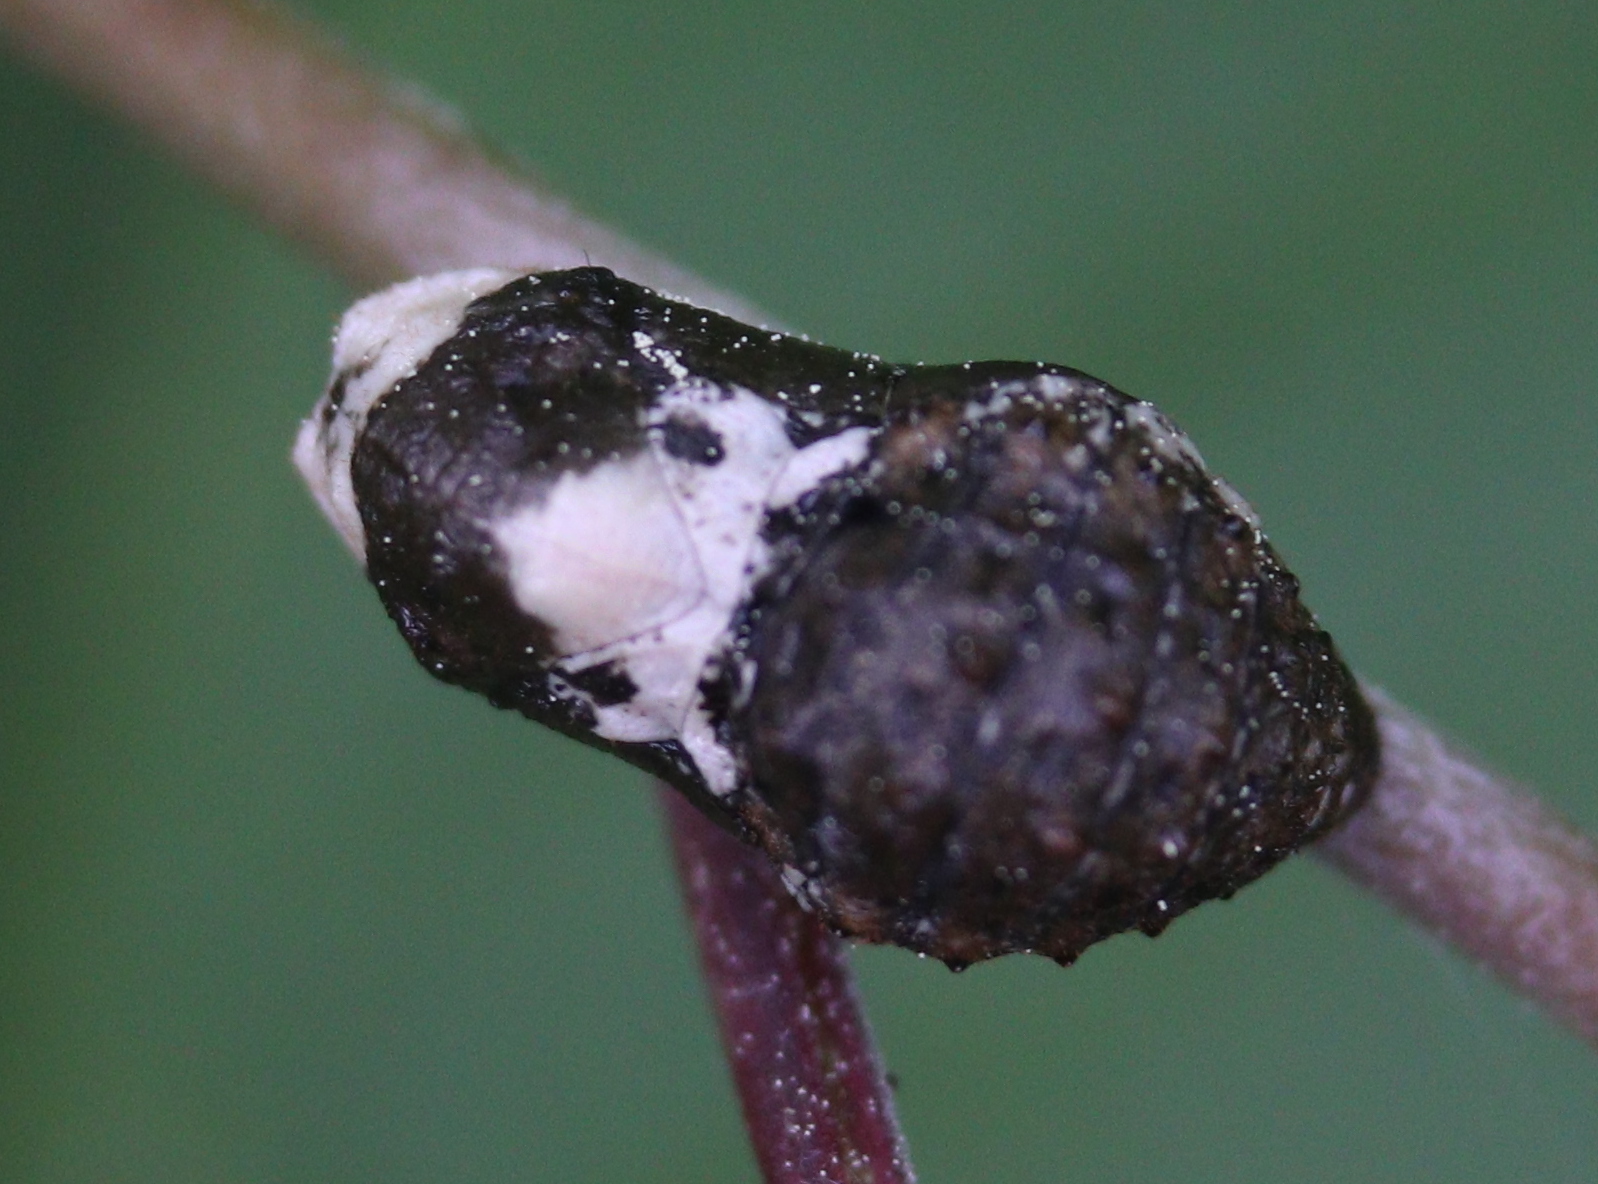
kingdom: Animalia
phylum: Arthropoda
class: Insecta
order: Lepidoptera
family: Lycaenidae
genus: Fixsenia
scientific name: Fixsenia pruni
